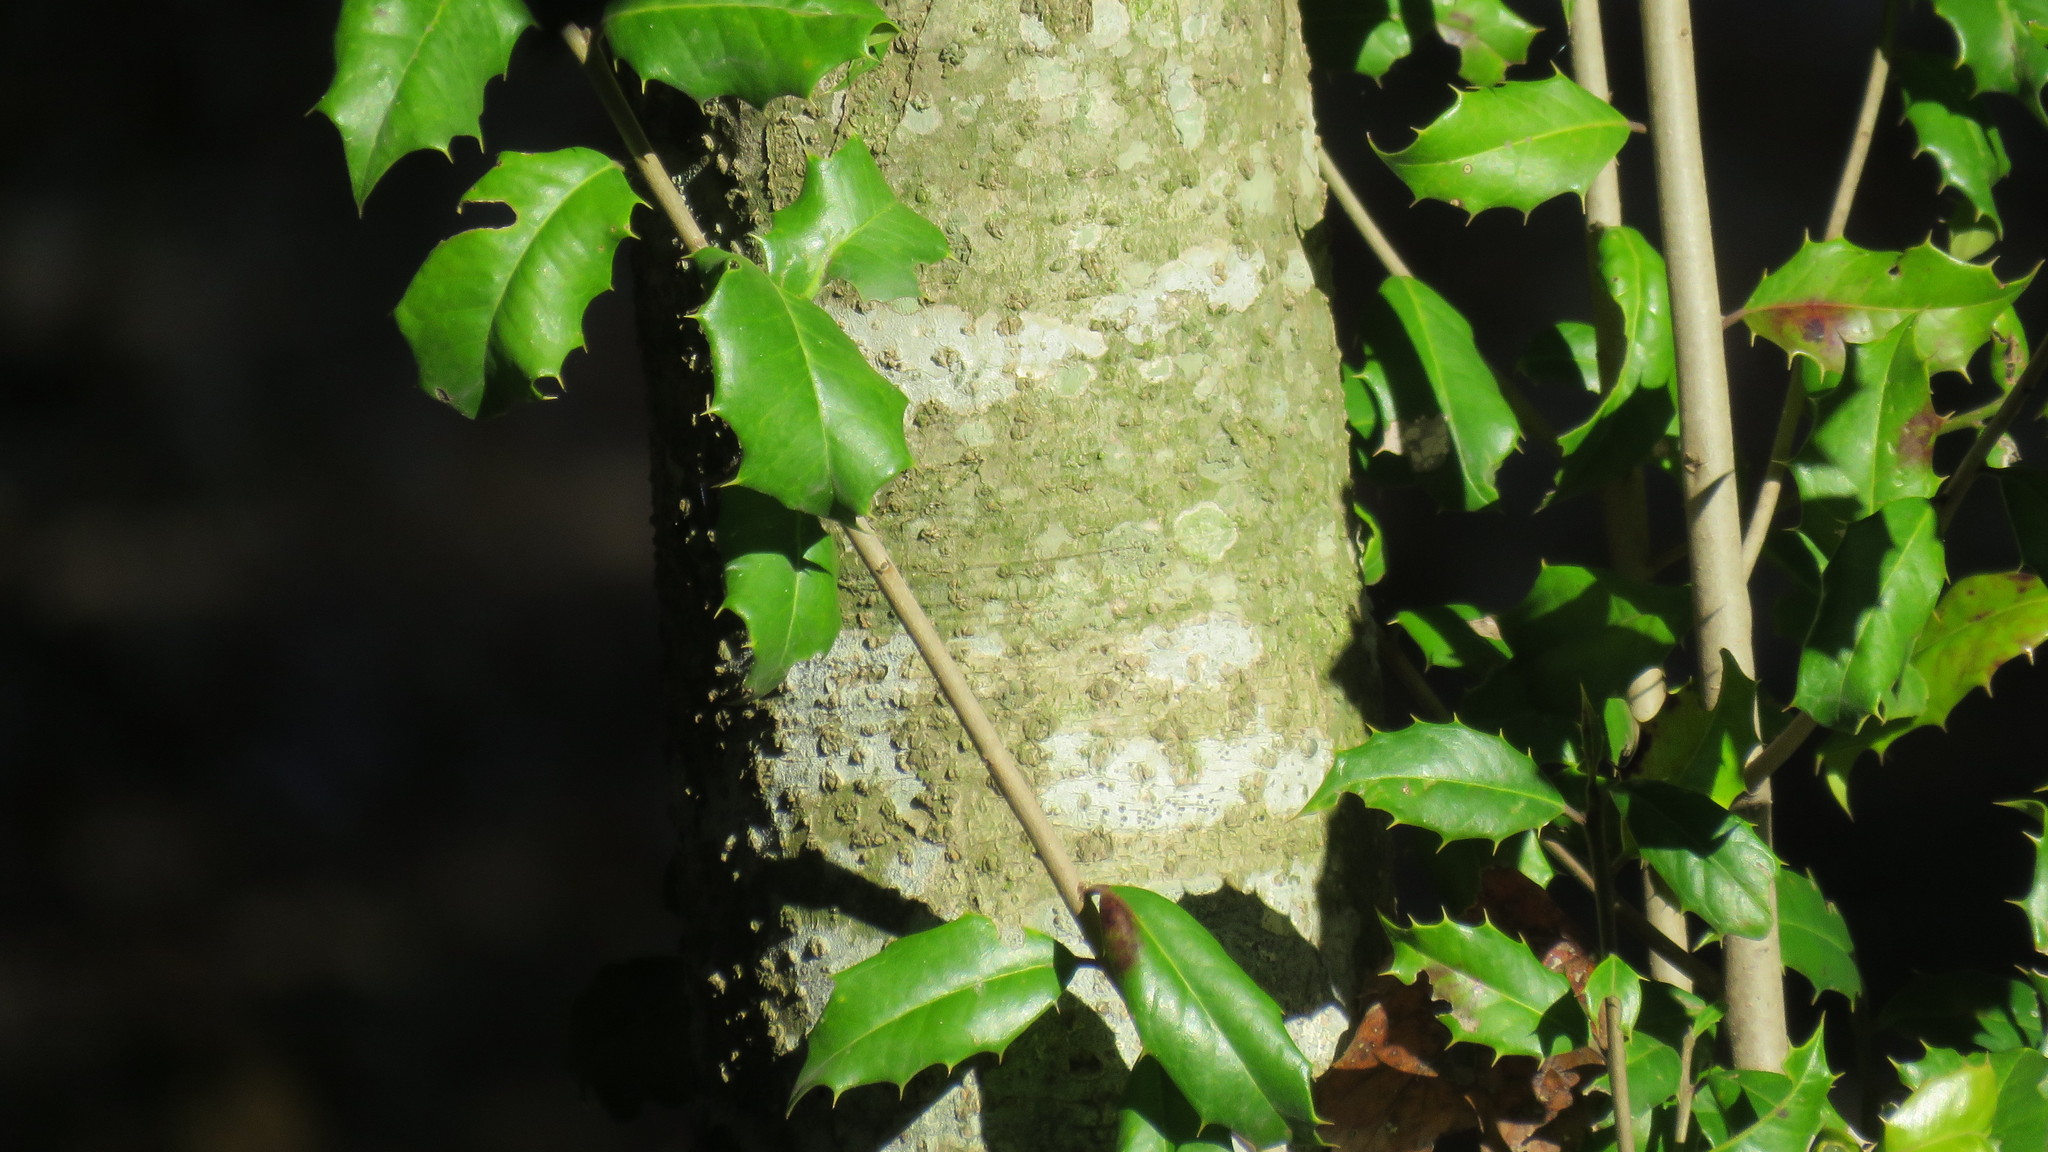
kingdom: Plantae
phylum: Tracheophyta
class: Magnoliopsida
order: Aquifoliales
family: Aquifoliaceae
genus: Ilex
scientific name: Ilex opaca
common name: American holly
